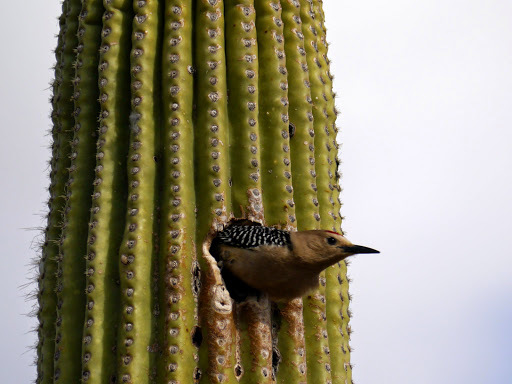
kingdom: Animalia
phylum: Chordata
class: Aves
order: Piciformes
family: Picidae
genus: Melanerpes
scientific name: Melanerpes uropygialis
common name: Gila woodpecker
